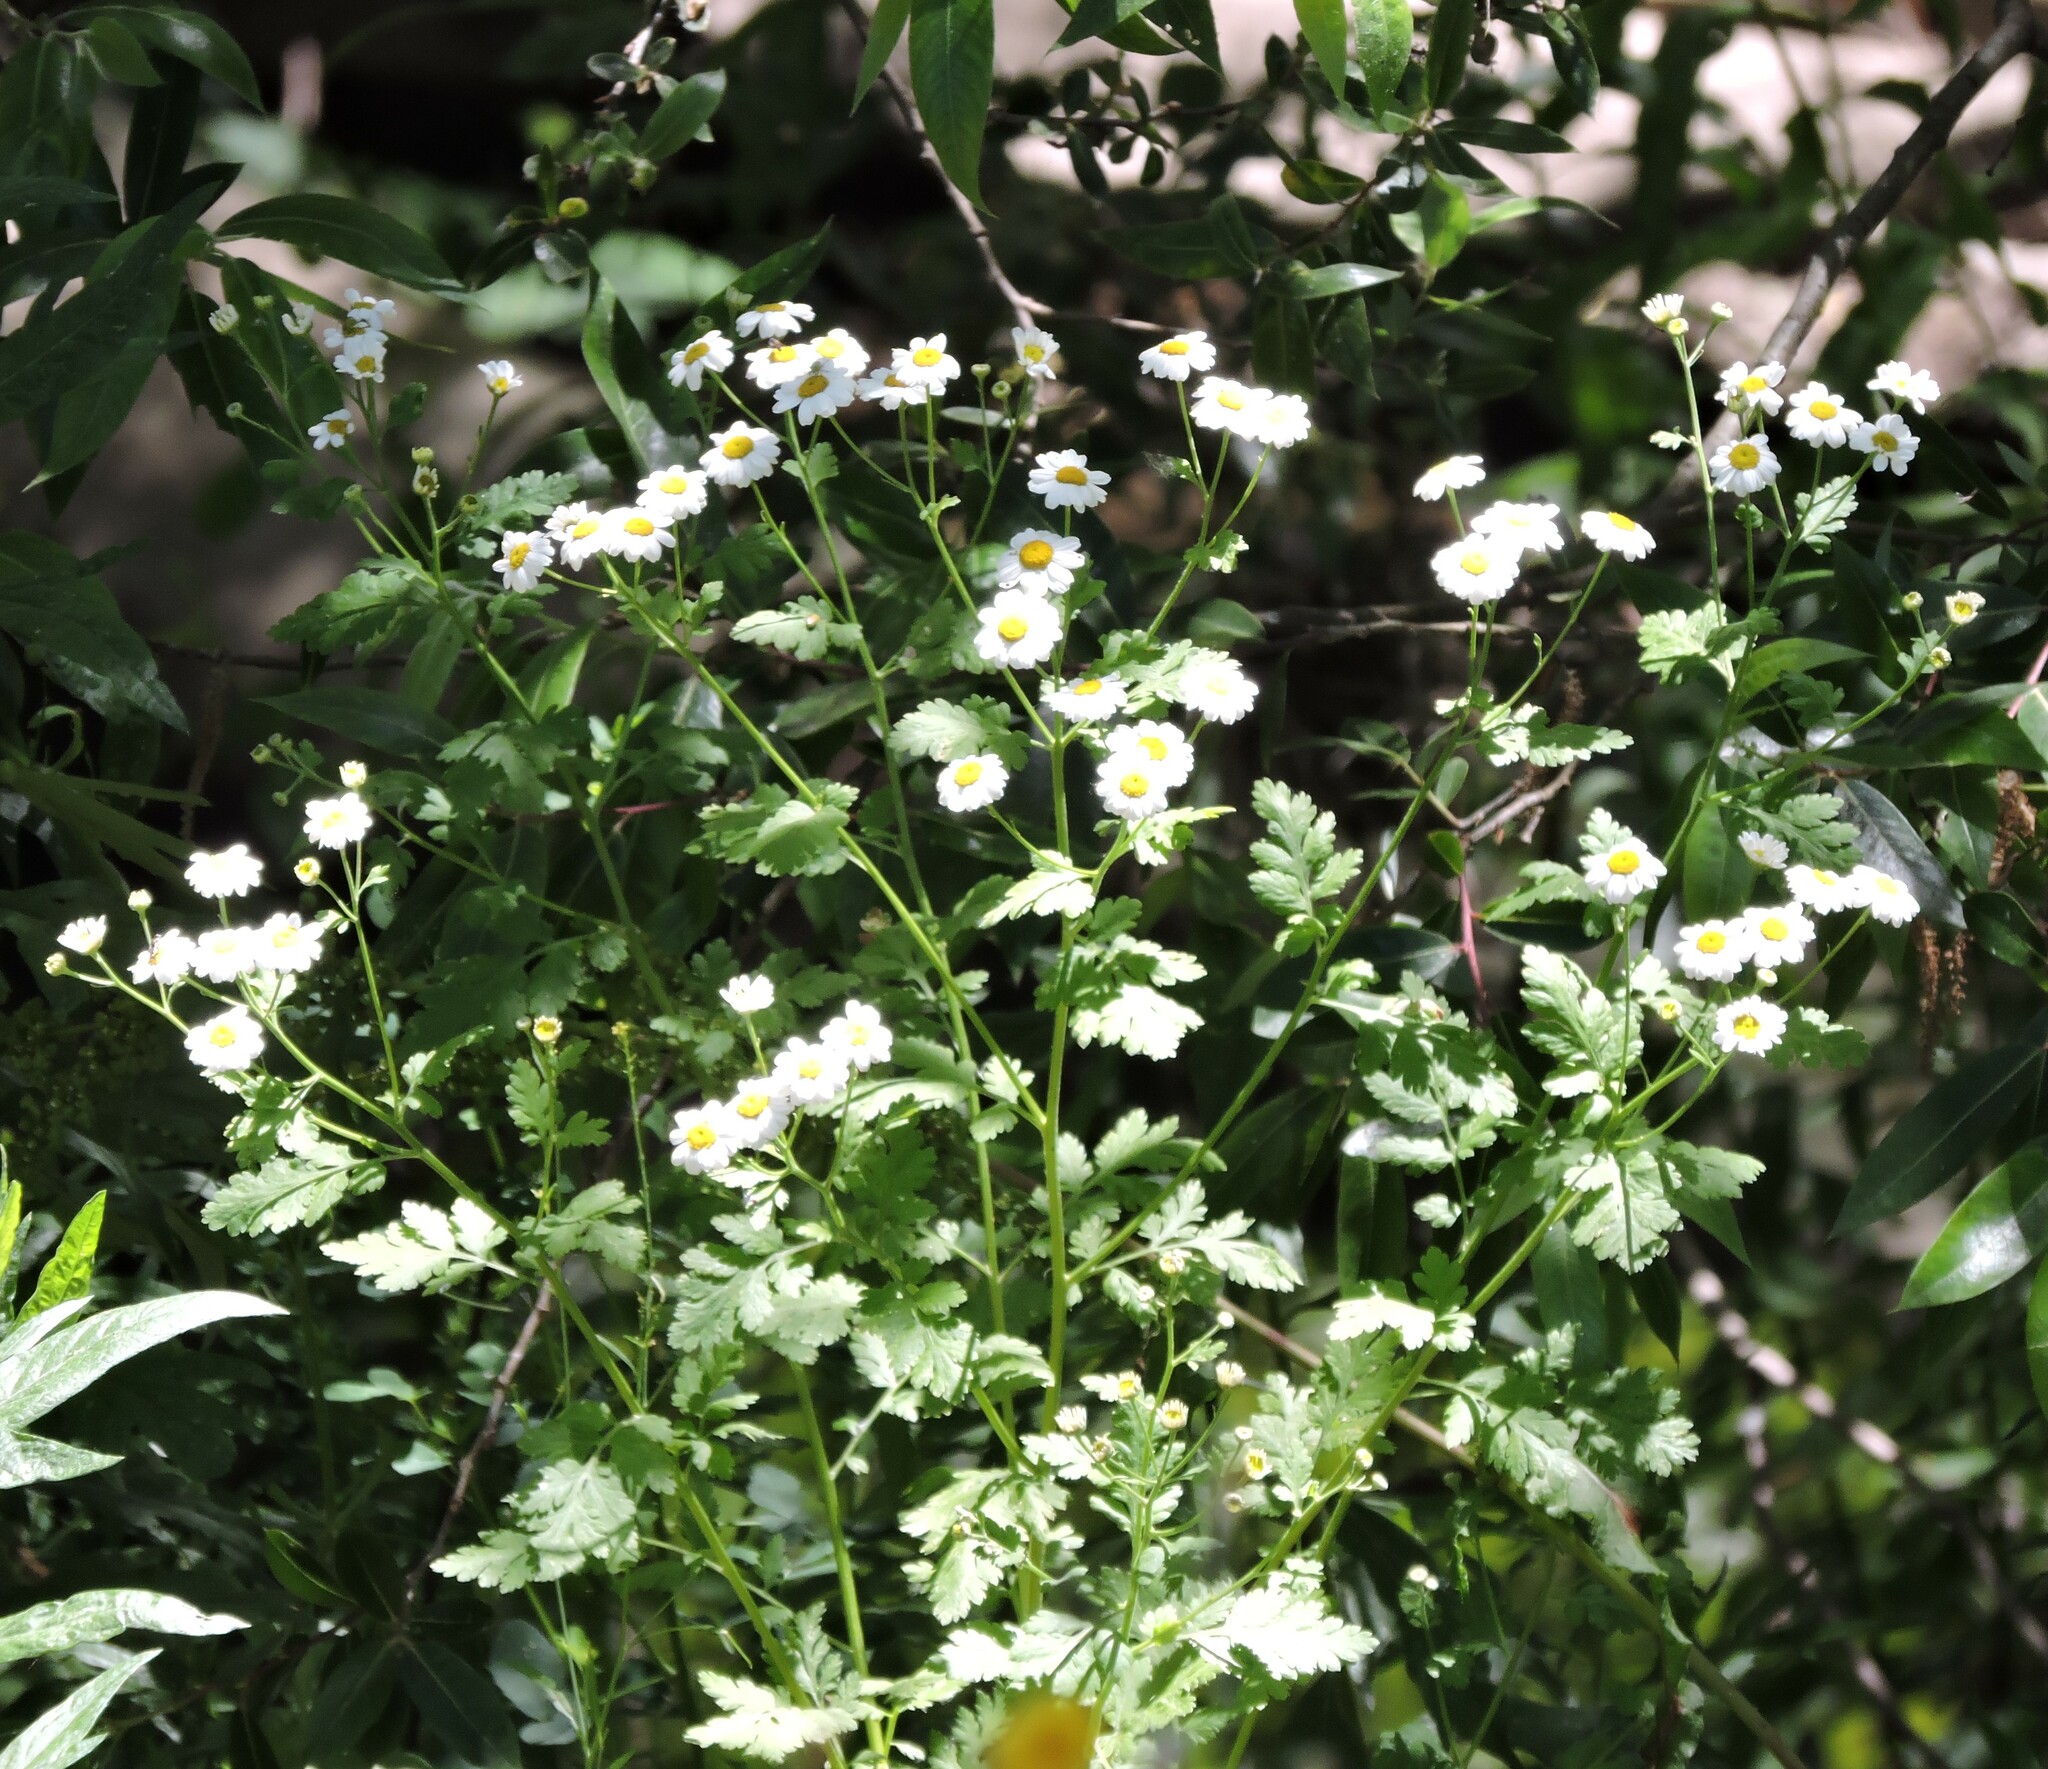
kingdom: Plantae
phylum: Tracheophyta
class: Magnoliopsida
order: Asterales
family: Asteraceae
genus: Tanacetum
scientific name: Tanacetum parthenium
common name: Feverfew
